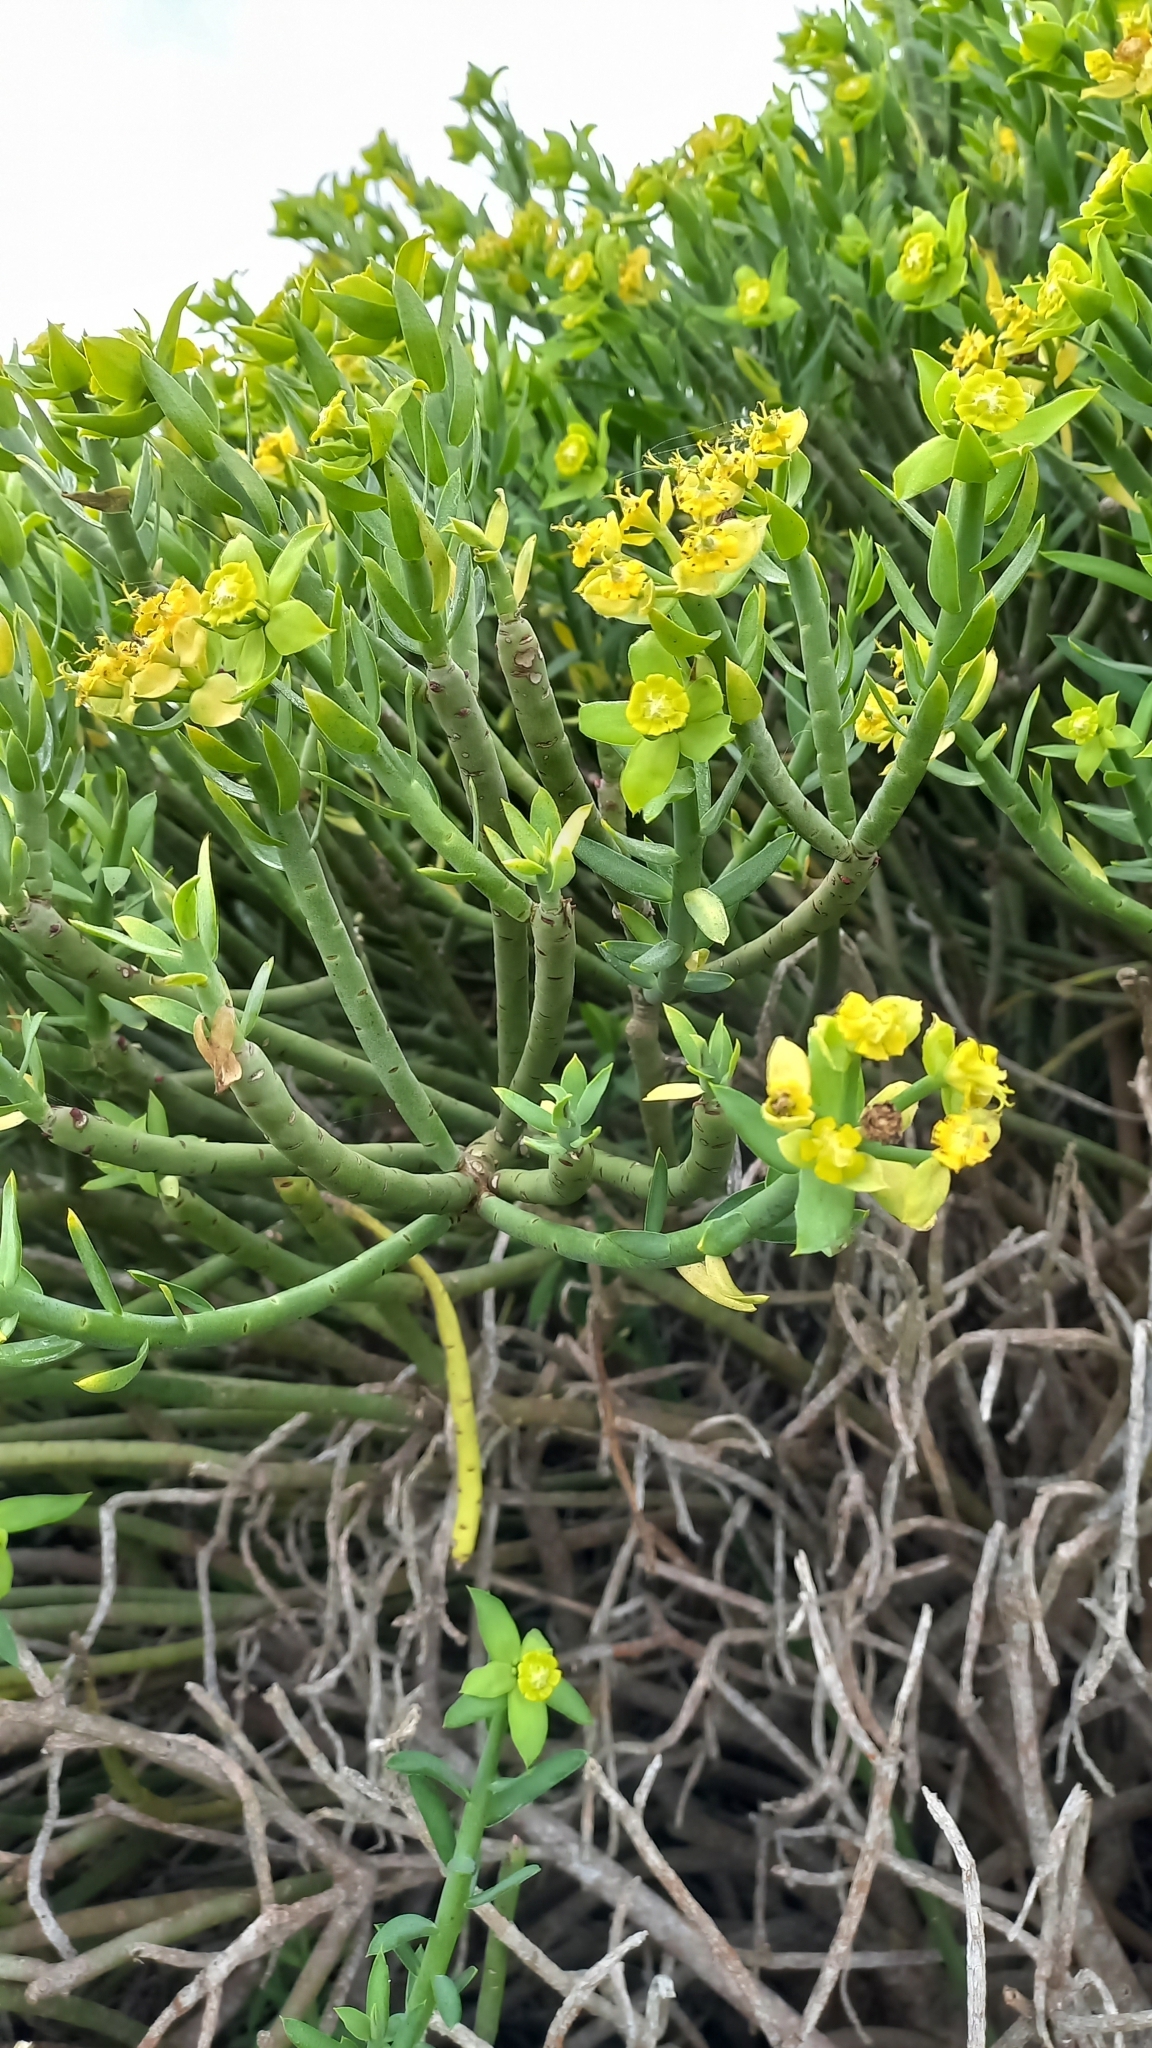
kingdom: Plantae
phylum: Tracheophyta
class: Magnoliopsida
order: Malpighiales
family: Euphorbiaceae
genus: Euphorbia
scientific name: Euphorbia mauritanica
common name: Jackal's-food
